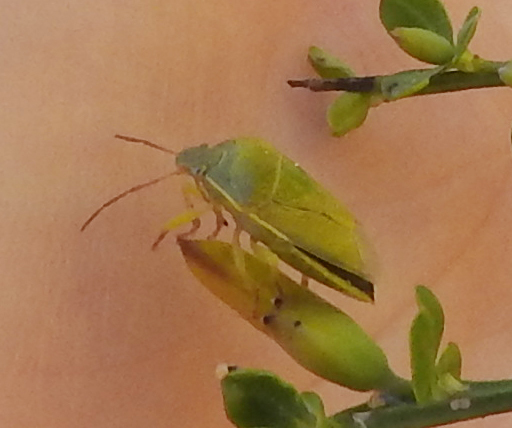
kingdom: Animalia
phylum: Arthropoda
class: Insecta
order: Hemiptera
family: Pentatomidae
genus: Piezodorus
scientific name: Piezodorus lituratus
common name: Stink bug
